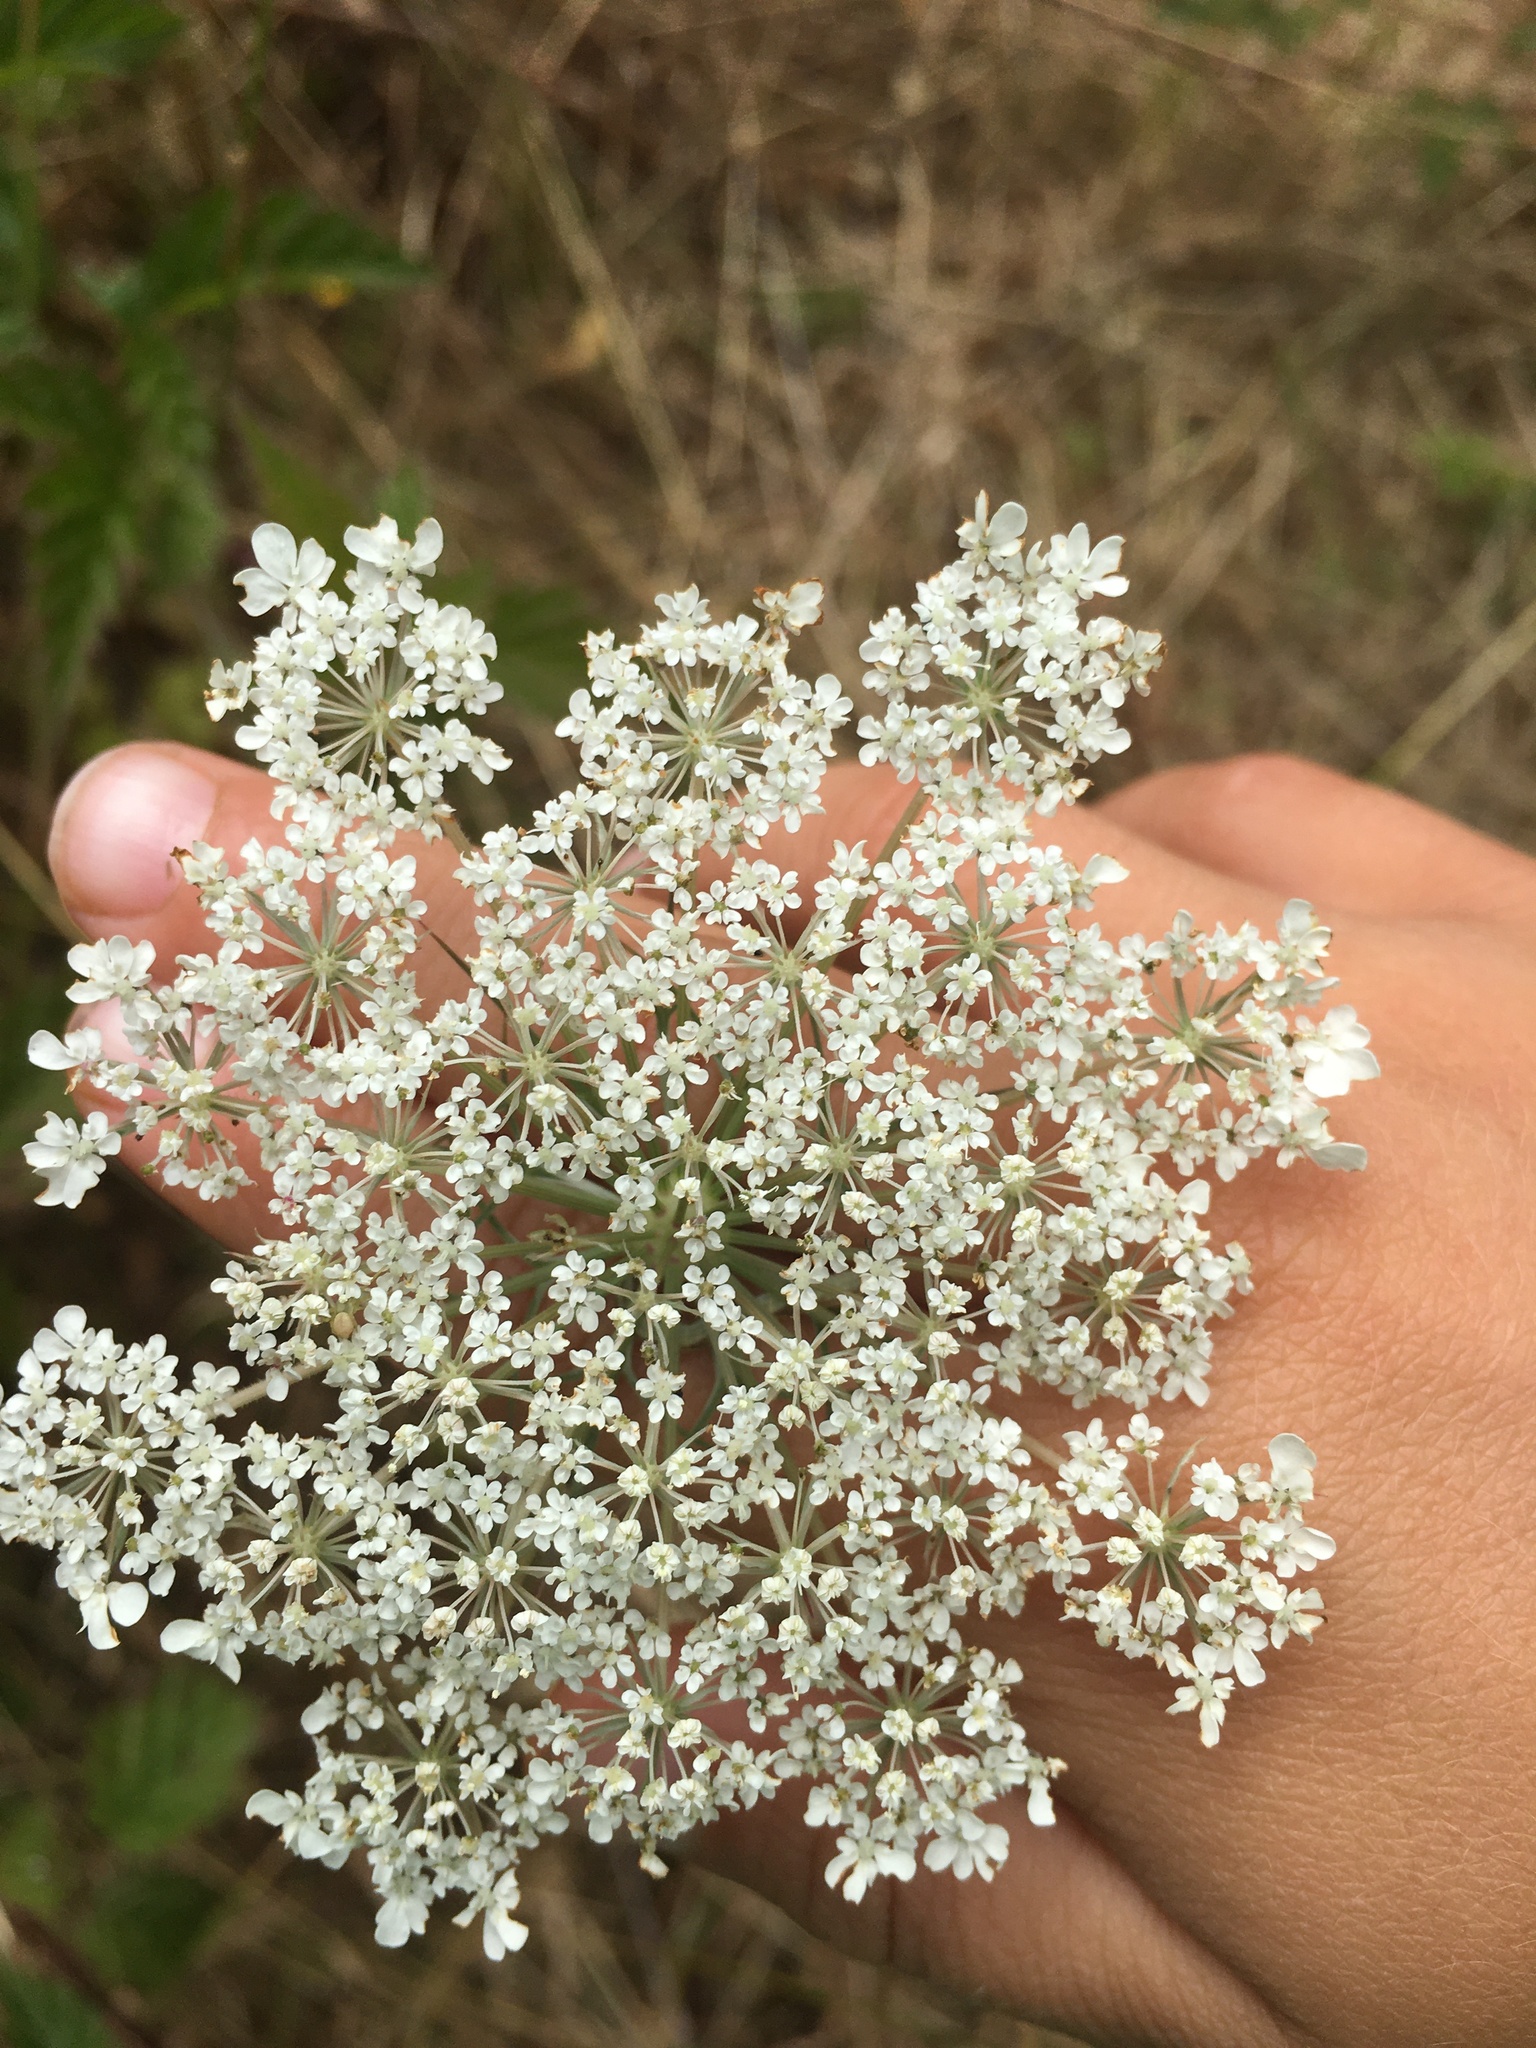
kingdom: Plantae
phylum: Tracheophyta
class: Magnoliopsida
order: Apiales
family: Apiaceae
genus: Daucus
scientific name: Daucus carota
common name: Wild carrot
